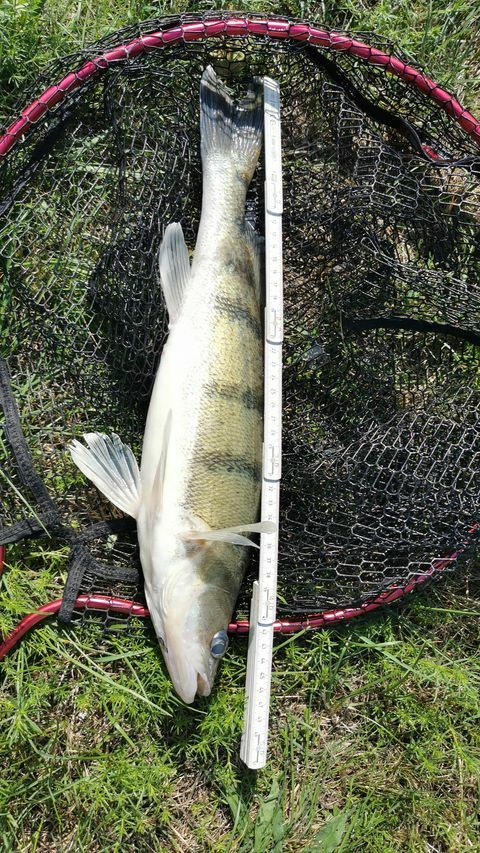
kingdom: Animalia
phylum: Chordata
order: Perciformes
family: Percidae
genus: Sander
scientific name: Sander volgensis
